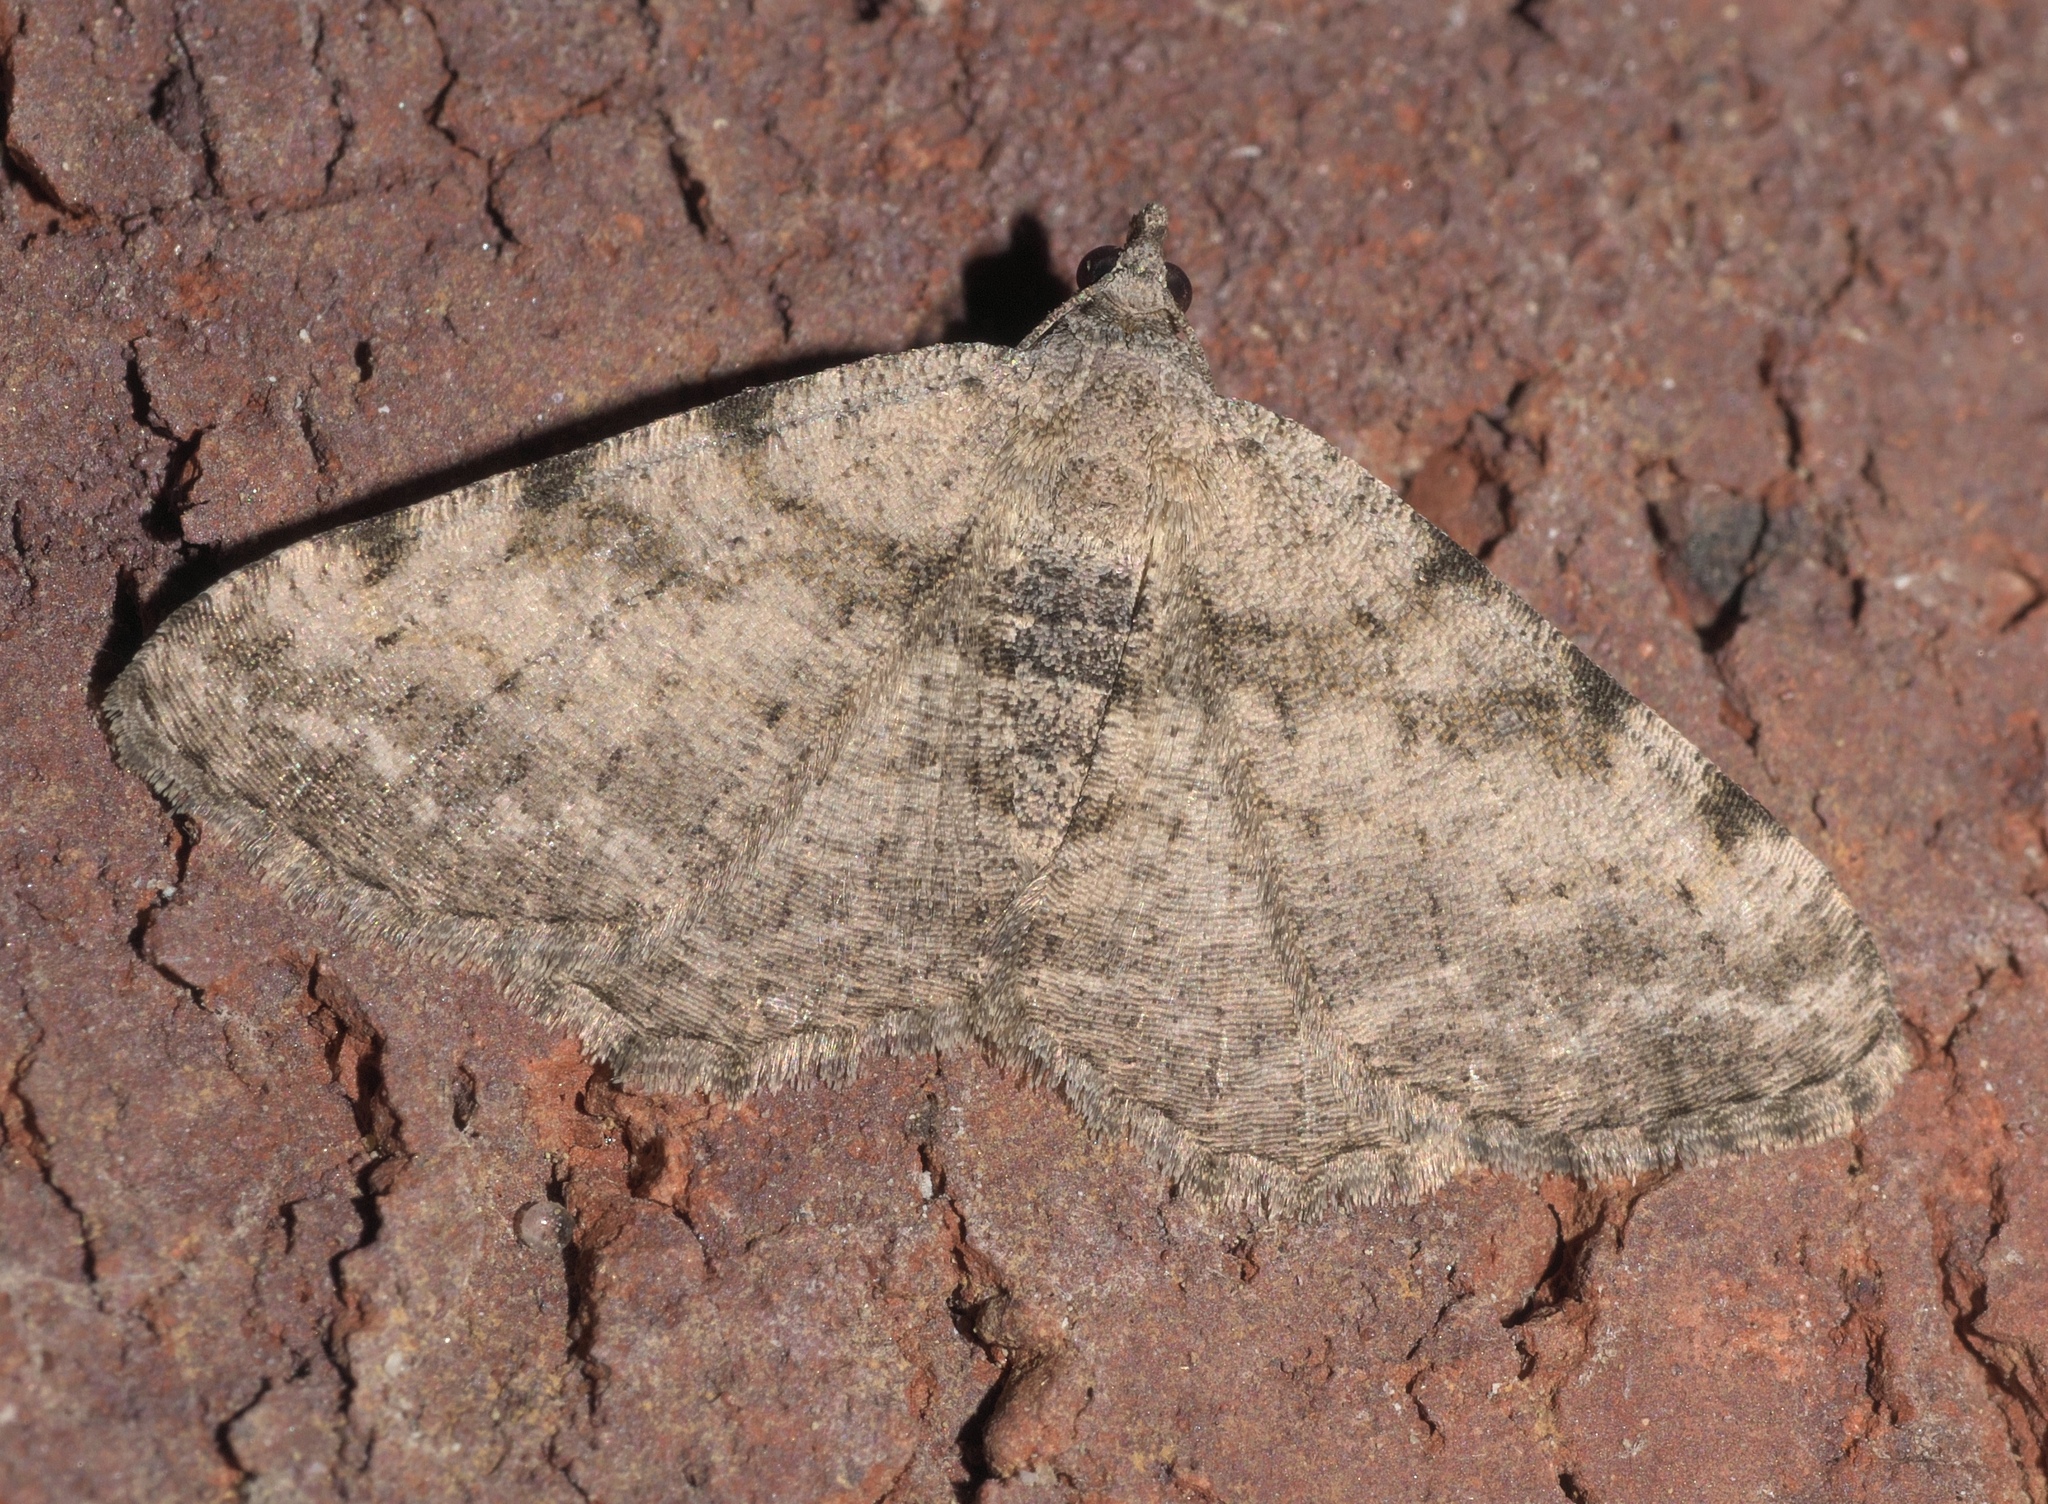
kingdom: Animalia
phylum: Arthropoda
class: Insecta
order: Lepidoptera
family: Geometridae
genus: Digrammia
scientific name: Digrammia gnophosaria
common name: Hollow-spotted angle
